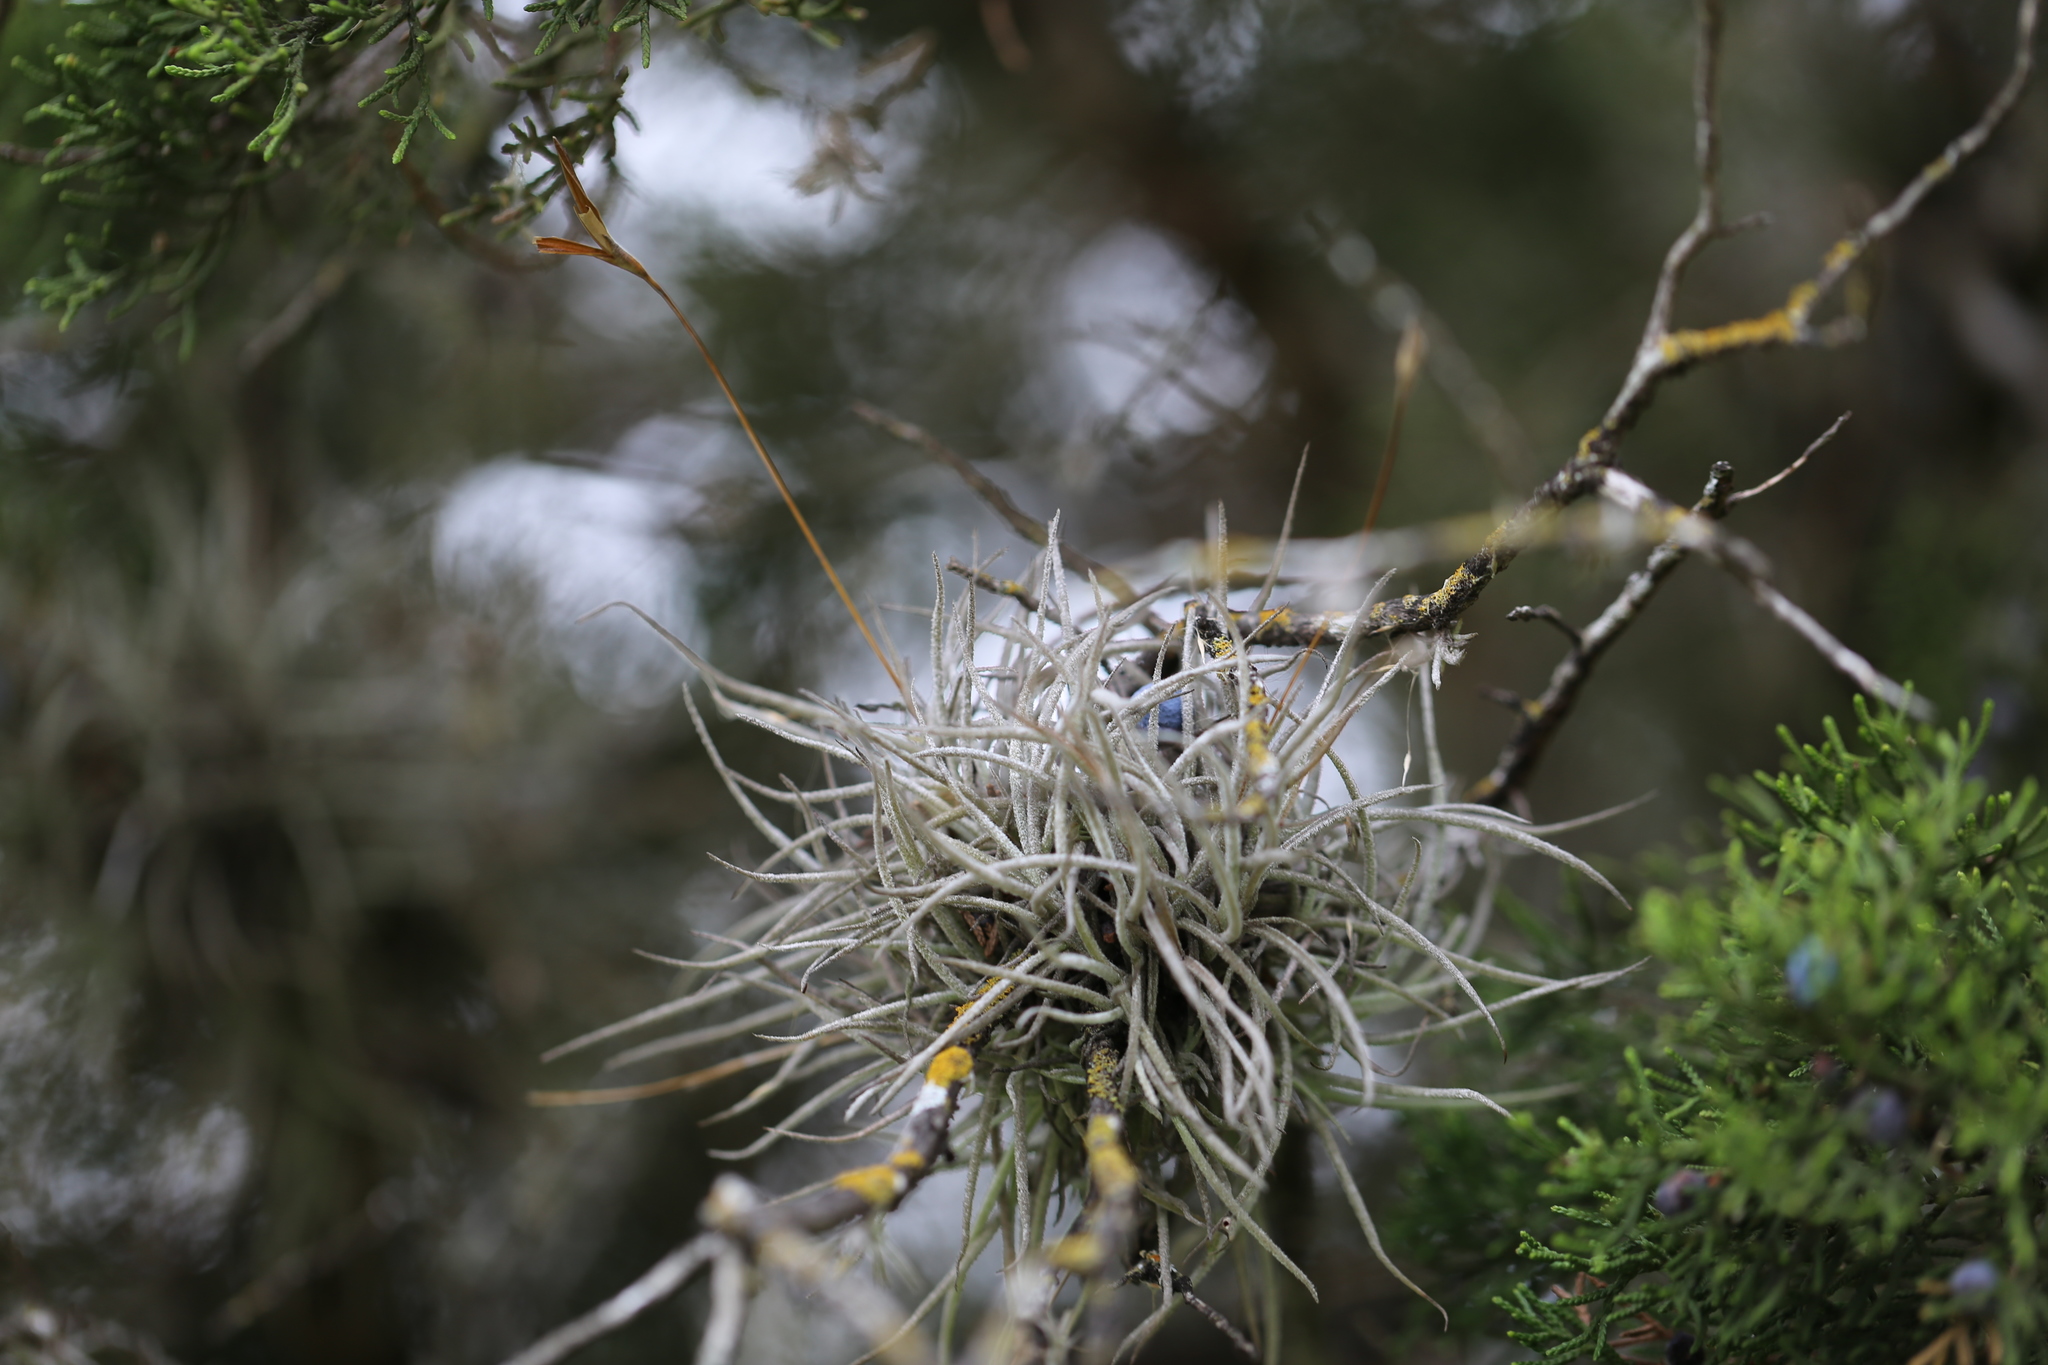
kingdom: Plantae
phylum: Tracheophyta
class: Liliopsida
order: Poales
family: Bromeliaceae
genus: Tillandsia
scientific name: Tillandsia recurvata
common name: Small ballmoss
